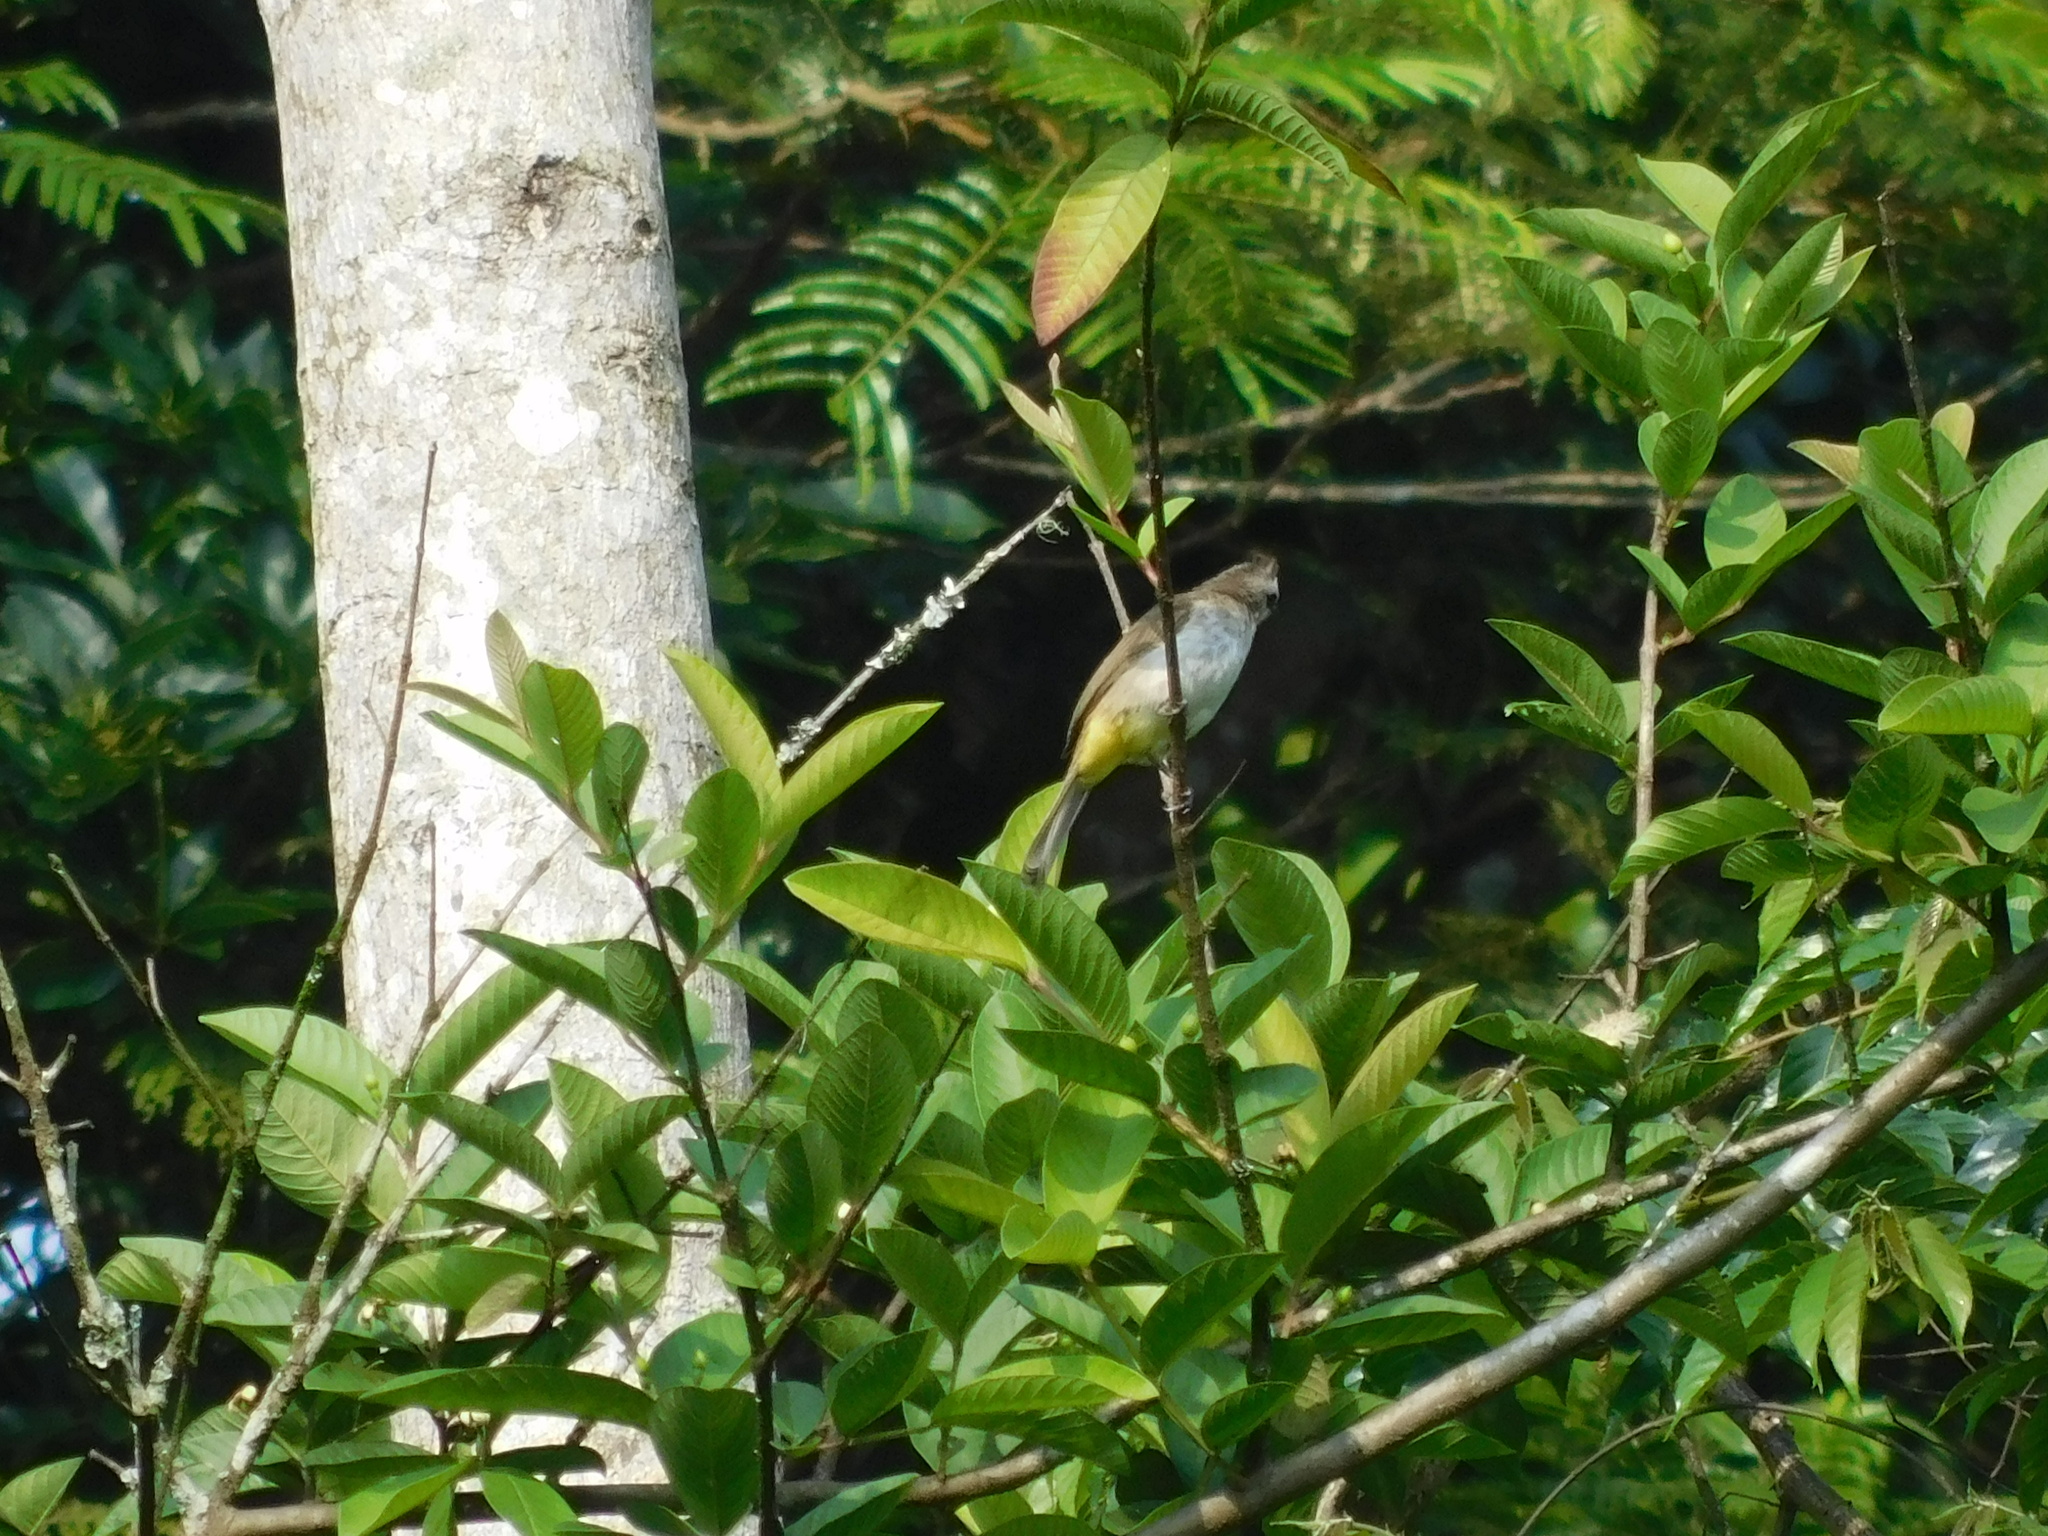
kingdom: Animalia
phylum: Chordata
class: Aves
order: Passeriformes
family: Pycnonotidae
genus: Pycnonotus
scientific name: Pycnonotus goiavier
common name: Yellow-vented bulbul
